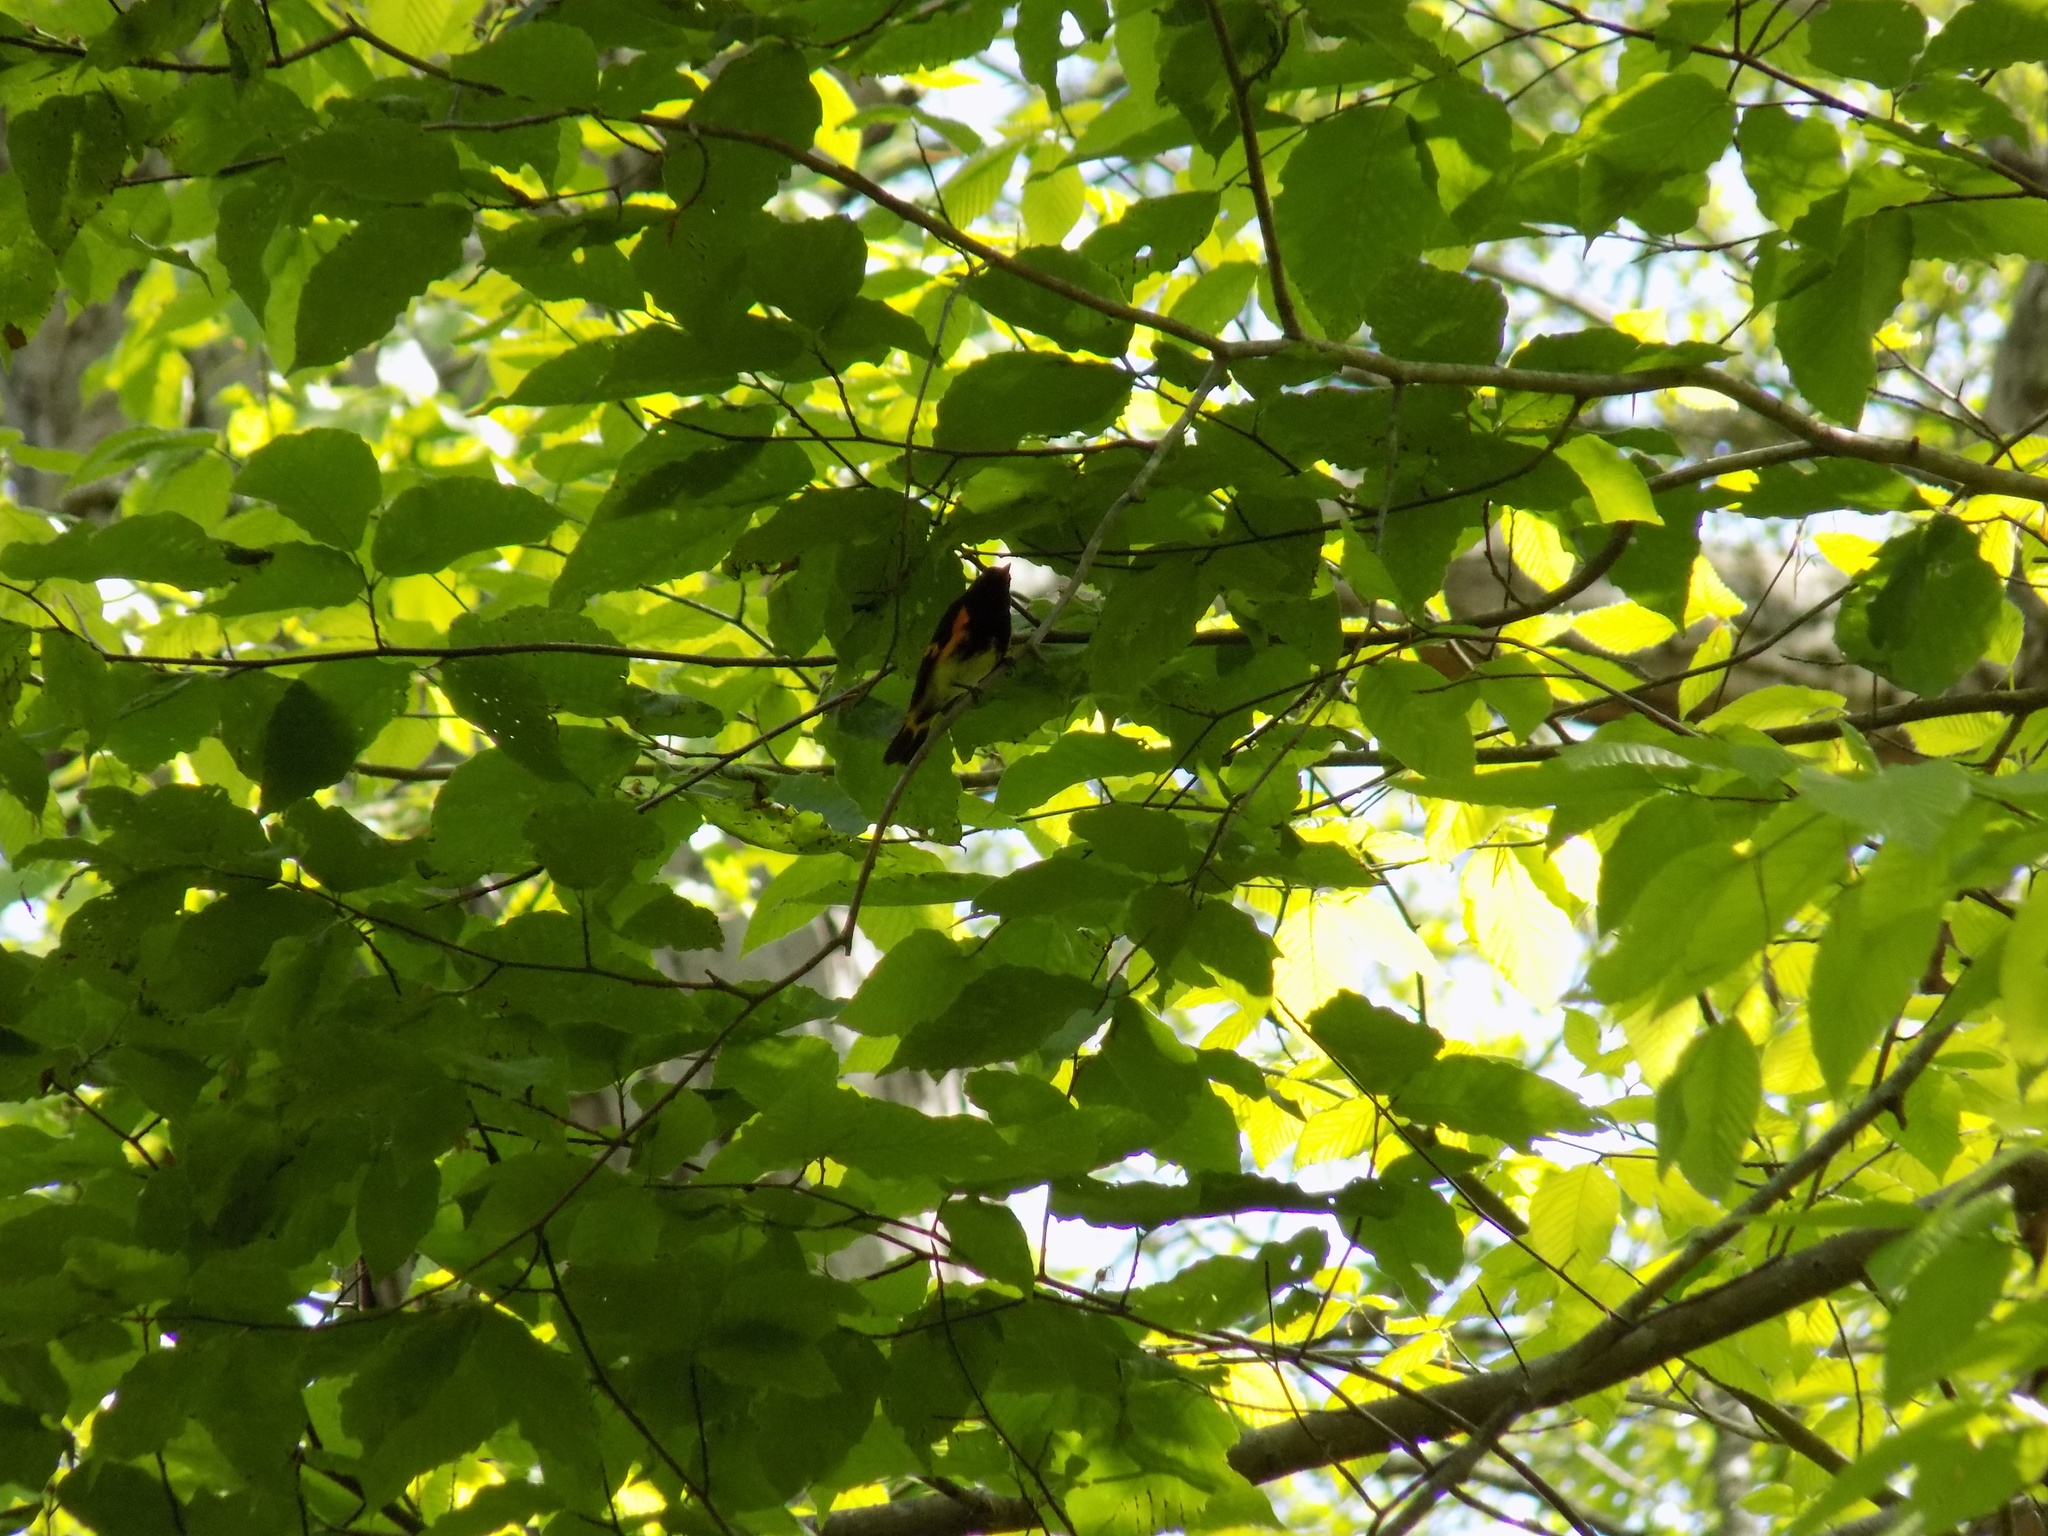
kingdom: Animalia
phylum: Chordata
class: Aves
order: Passeriformes
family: Parulidae
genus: Setophaga
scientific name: Setophaga ruticilla
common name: American redstart
